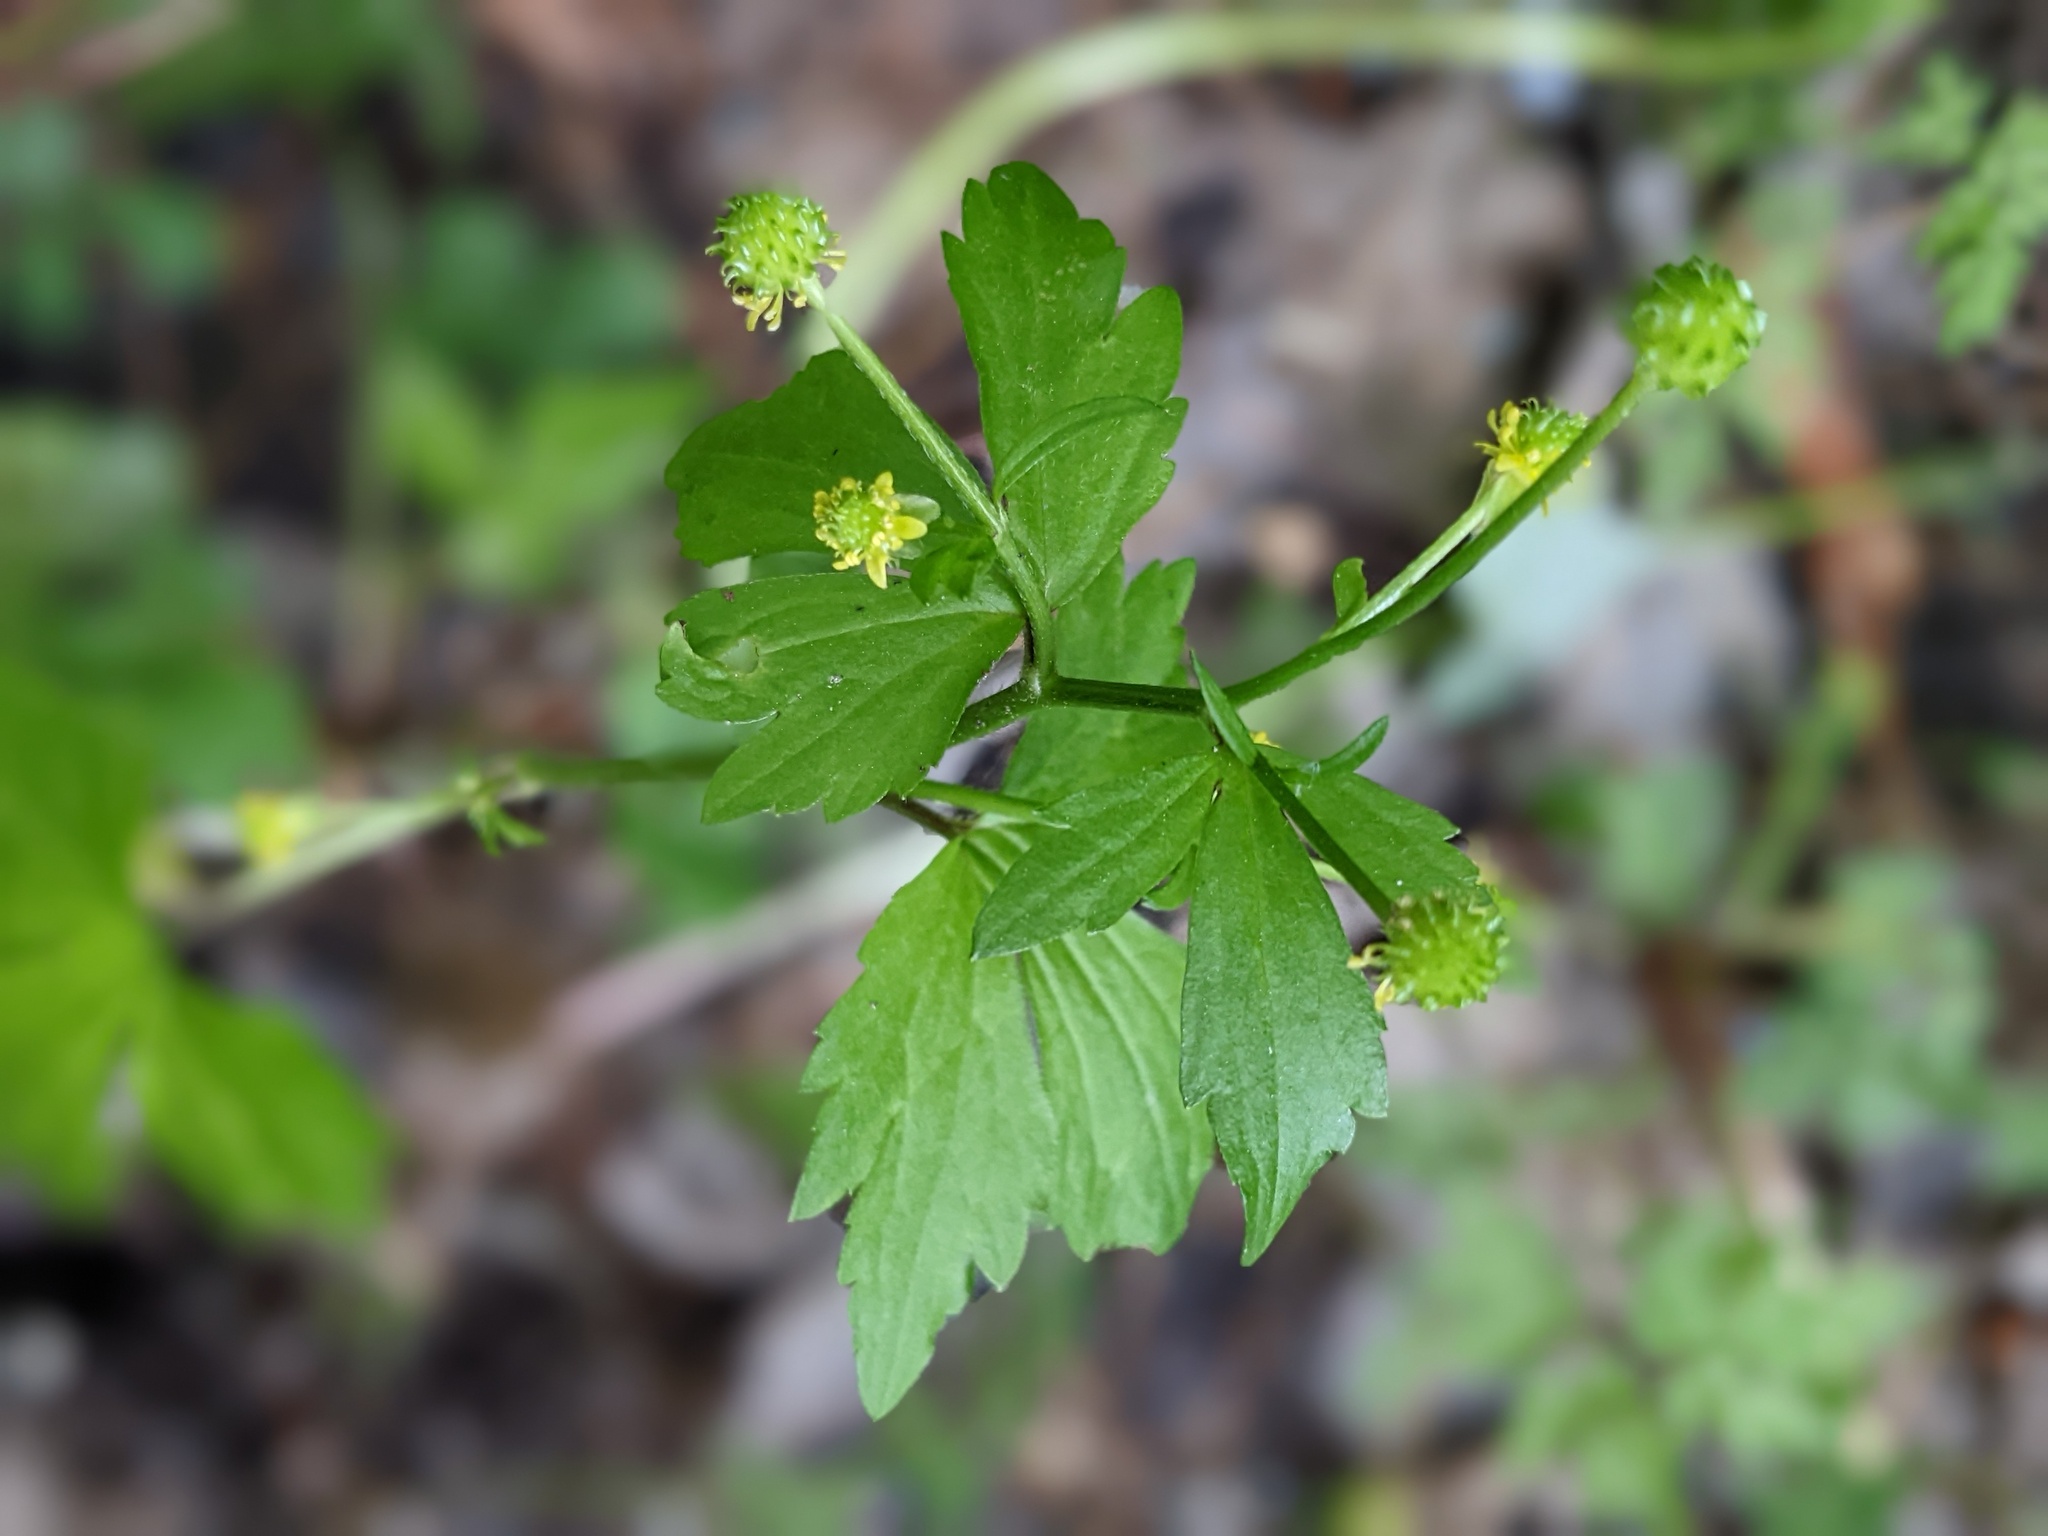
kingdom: Plantae
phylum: Tracheophyta
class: Magnoliopsida
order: Ranunculales
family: Ranunculaceae
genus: Ranunculus
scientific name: Ranunculus recurvatus
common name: Blisterwort
